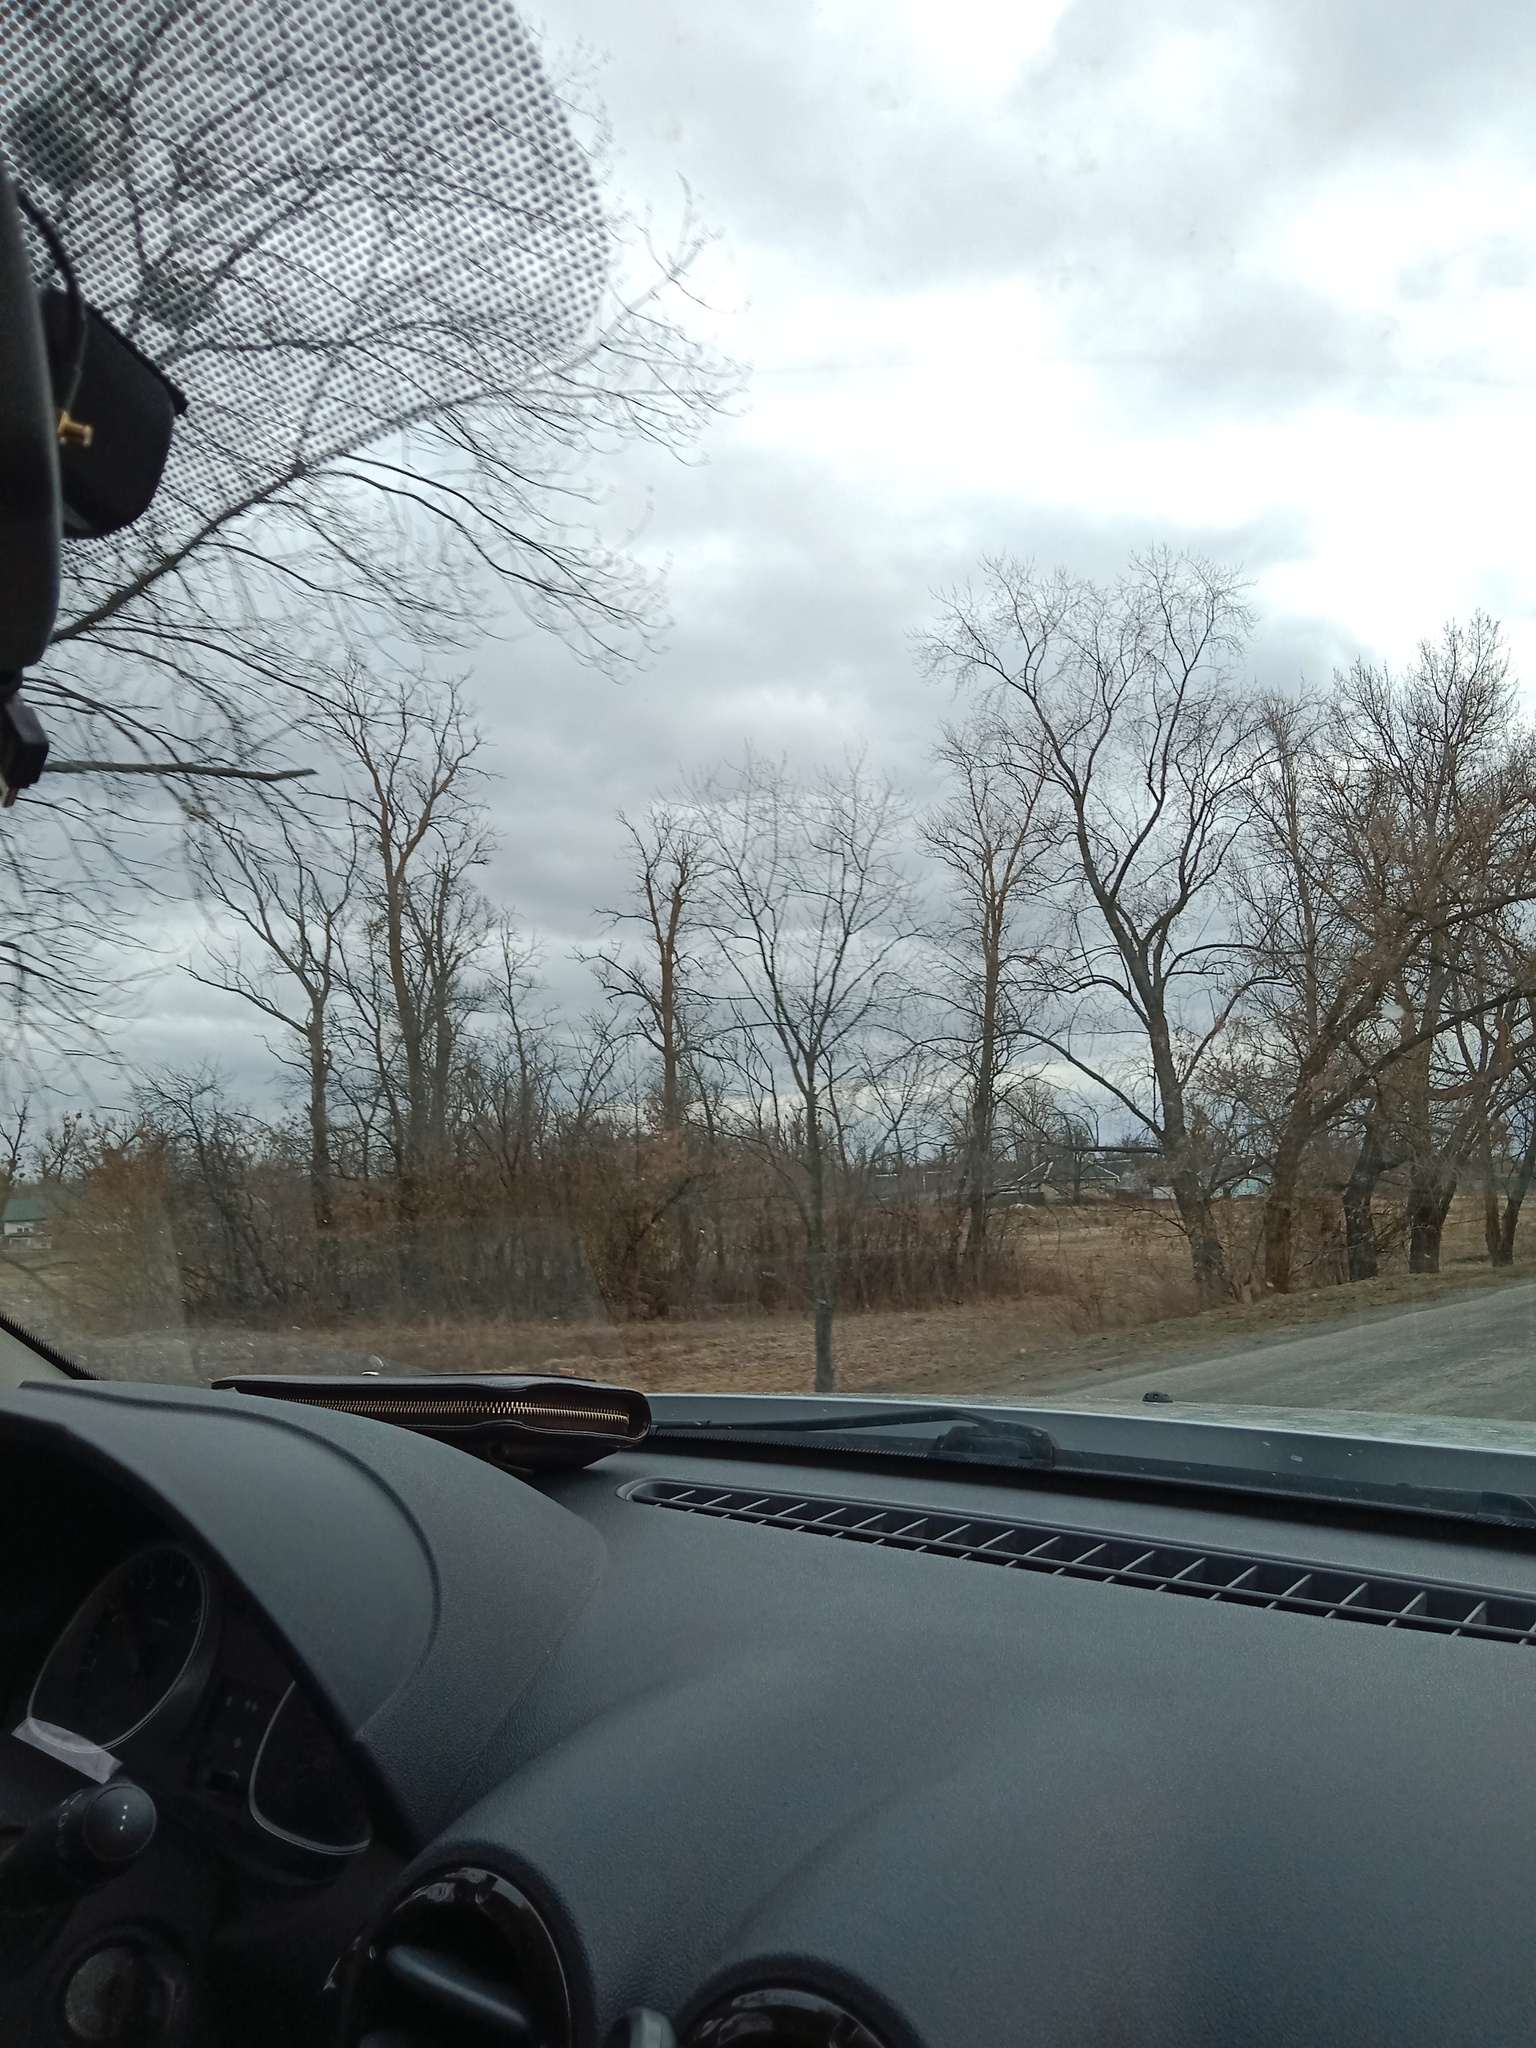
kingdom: Plantae
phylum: Tracheophyta
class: Magnoliopsida
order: Santalales
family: Viscaceae
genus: Viscum
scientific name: Viscum album
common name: Mistletoe
